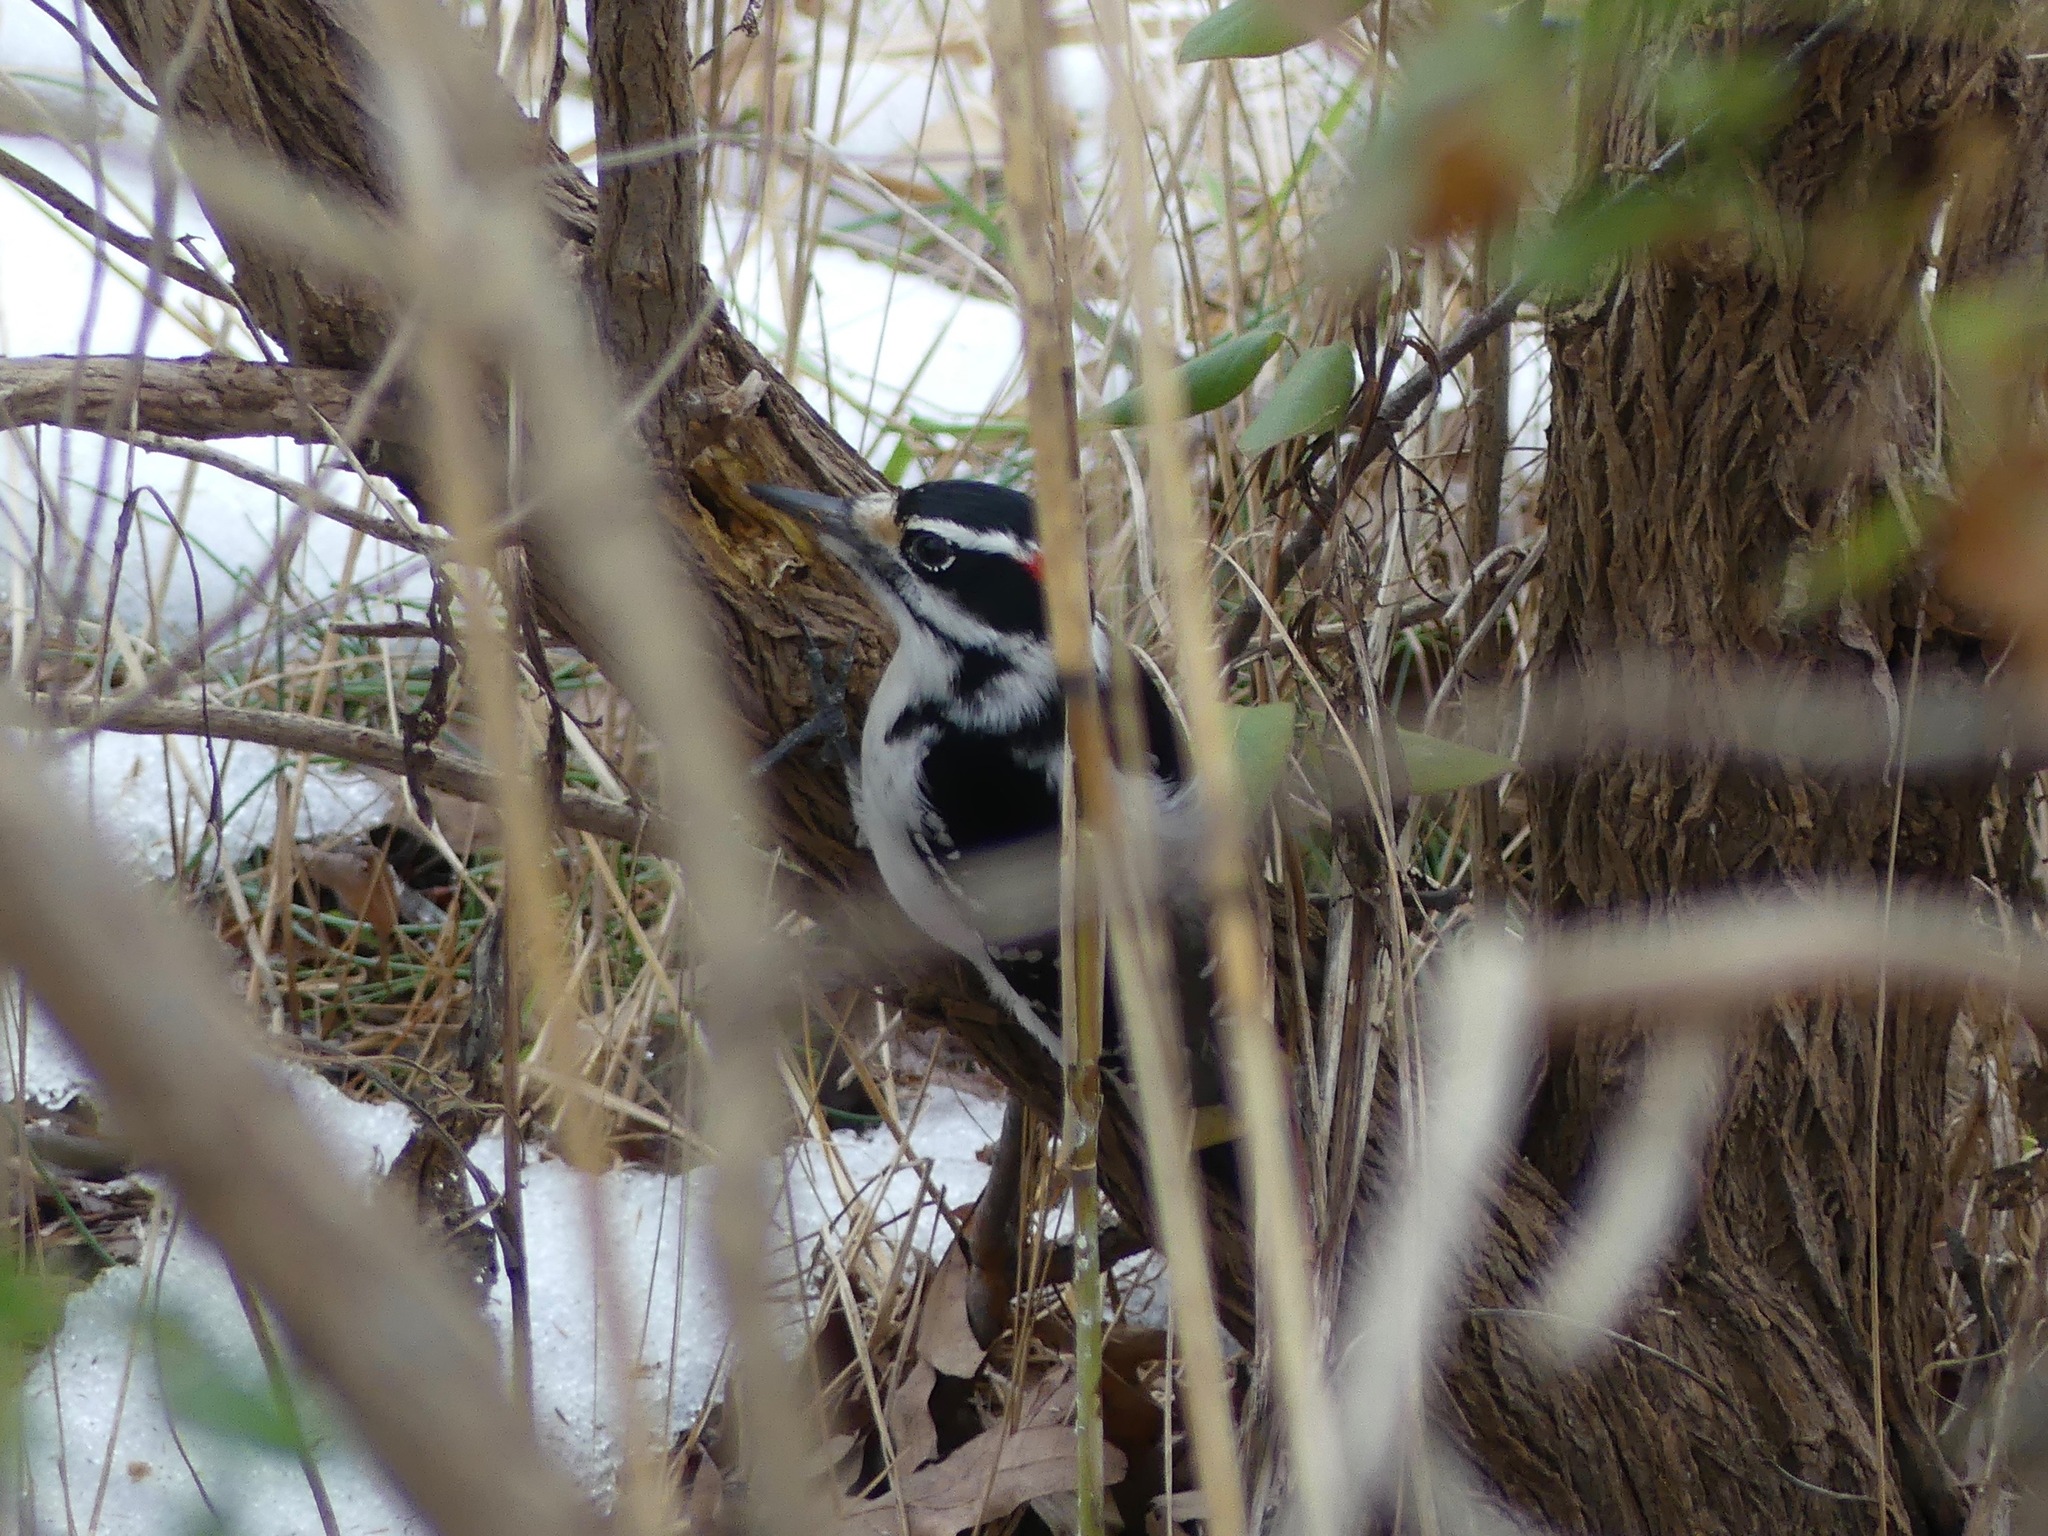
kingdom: Animalia
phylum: Chordata
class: Aves
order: Piciformes
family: Picidae
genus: Leuconotopicus
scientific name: Leuconotopicus villosus
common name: Hairy woodpecker
